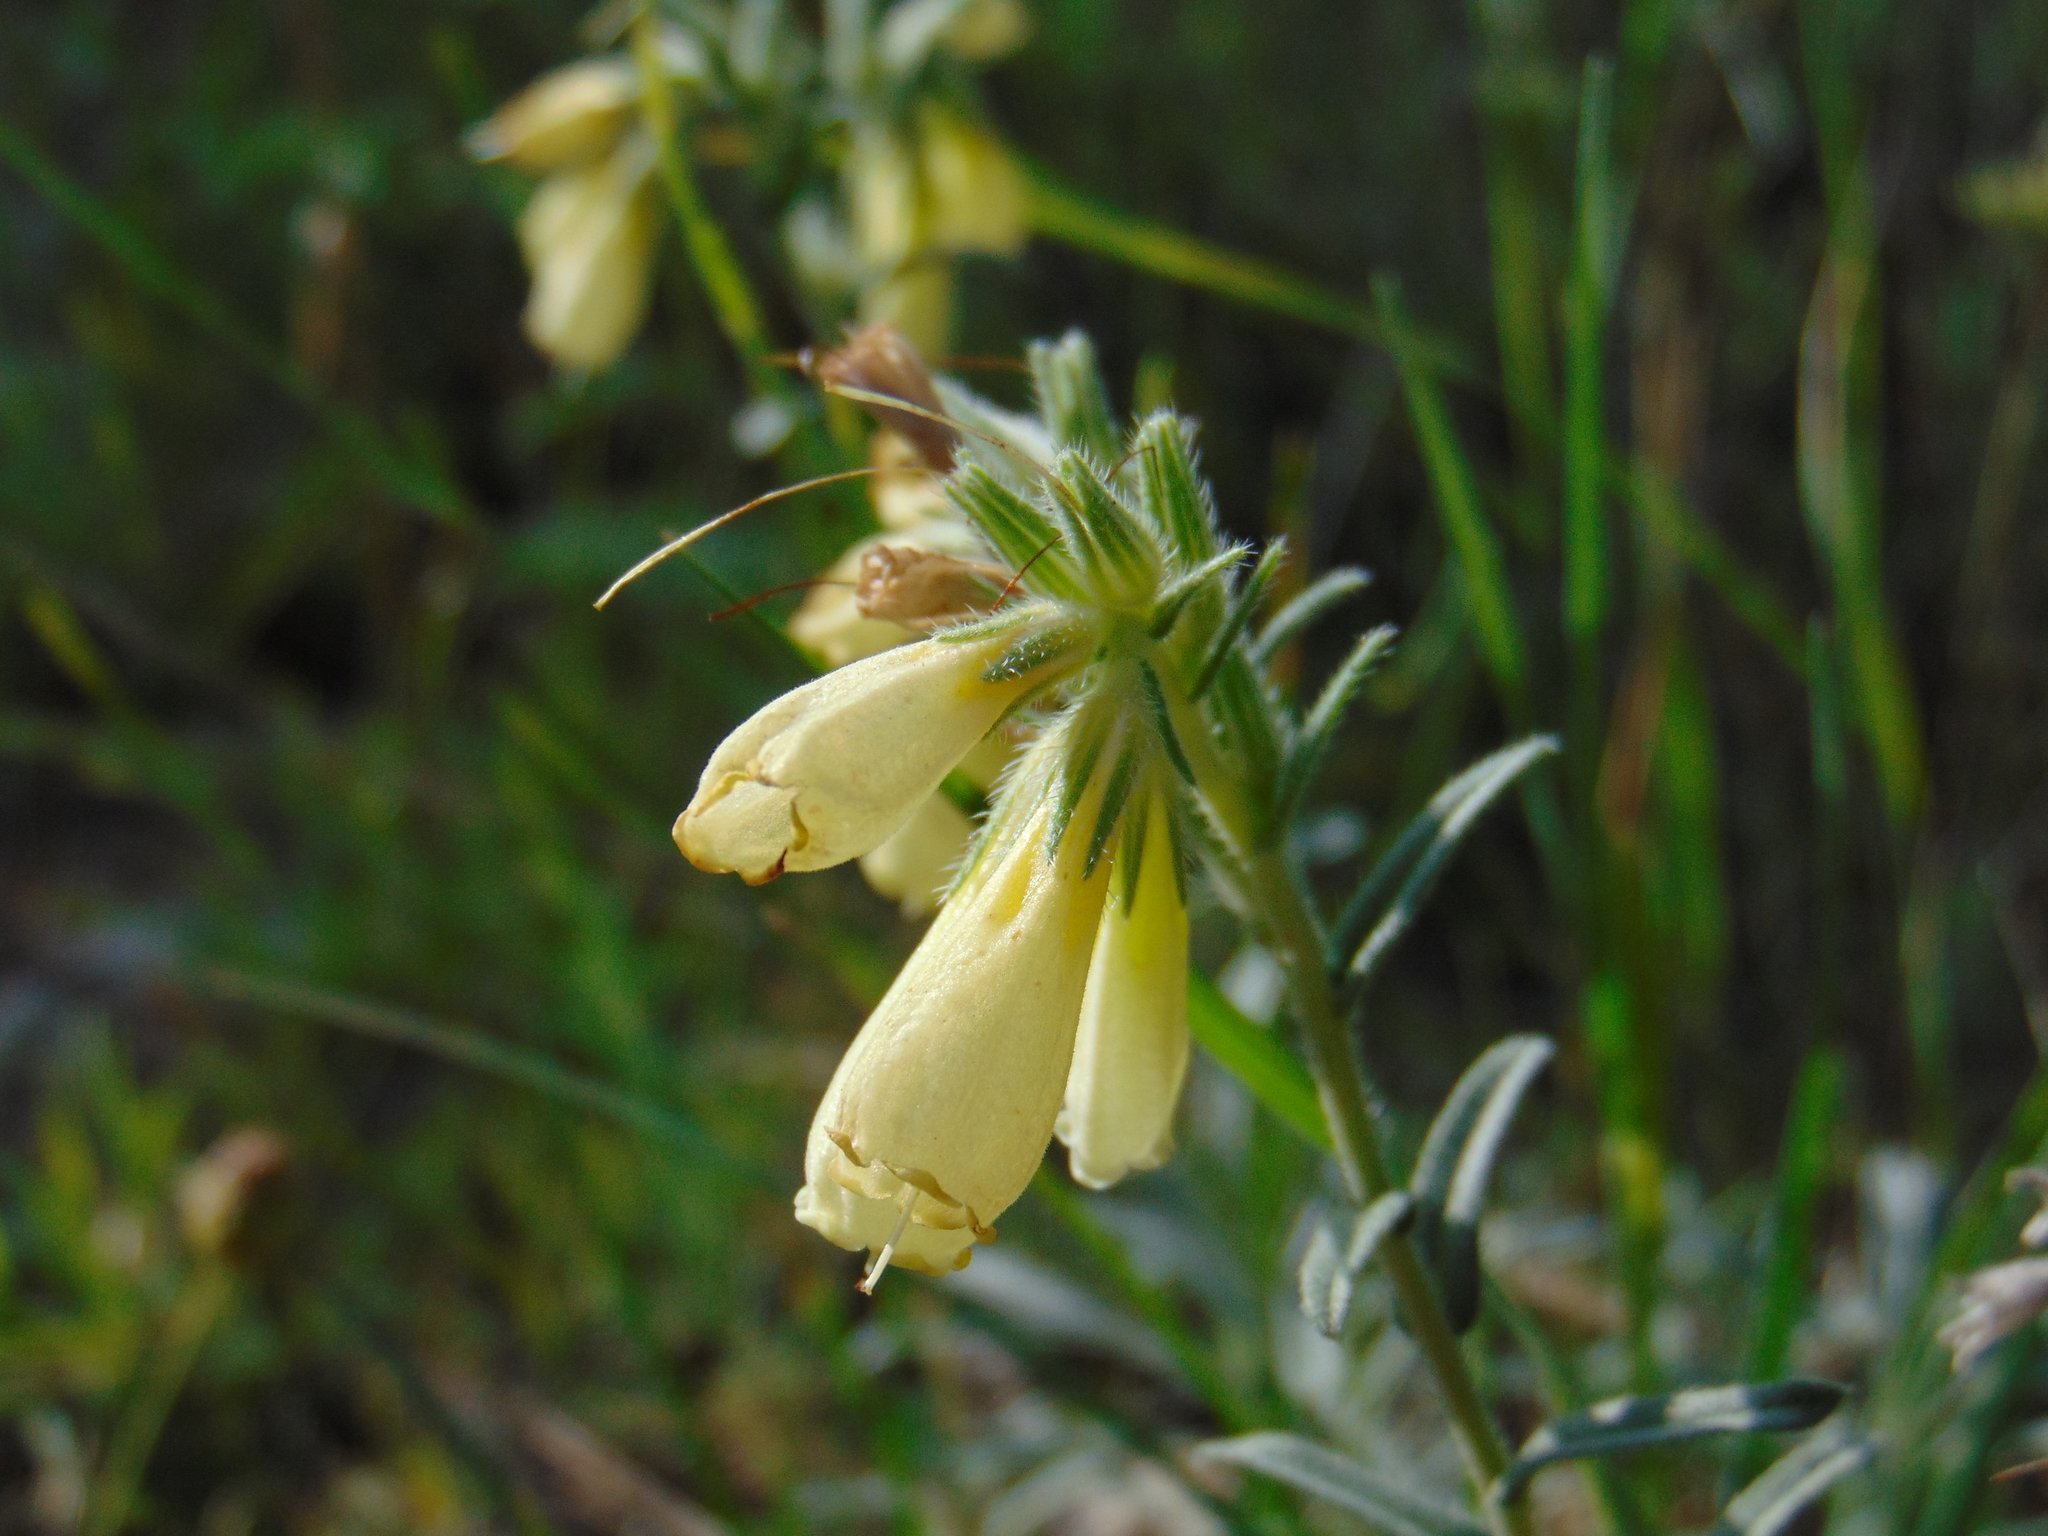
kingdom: Plantae
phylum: Tracheophyta
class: Magnoliopsida
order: Boraginales
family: Boraginaceae
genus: Onosma
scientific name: Onosma echioides
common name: Goldendrop
